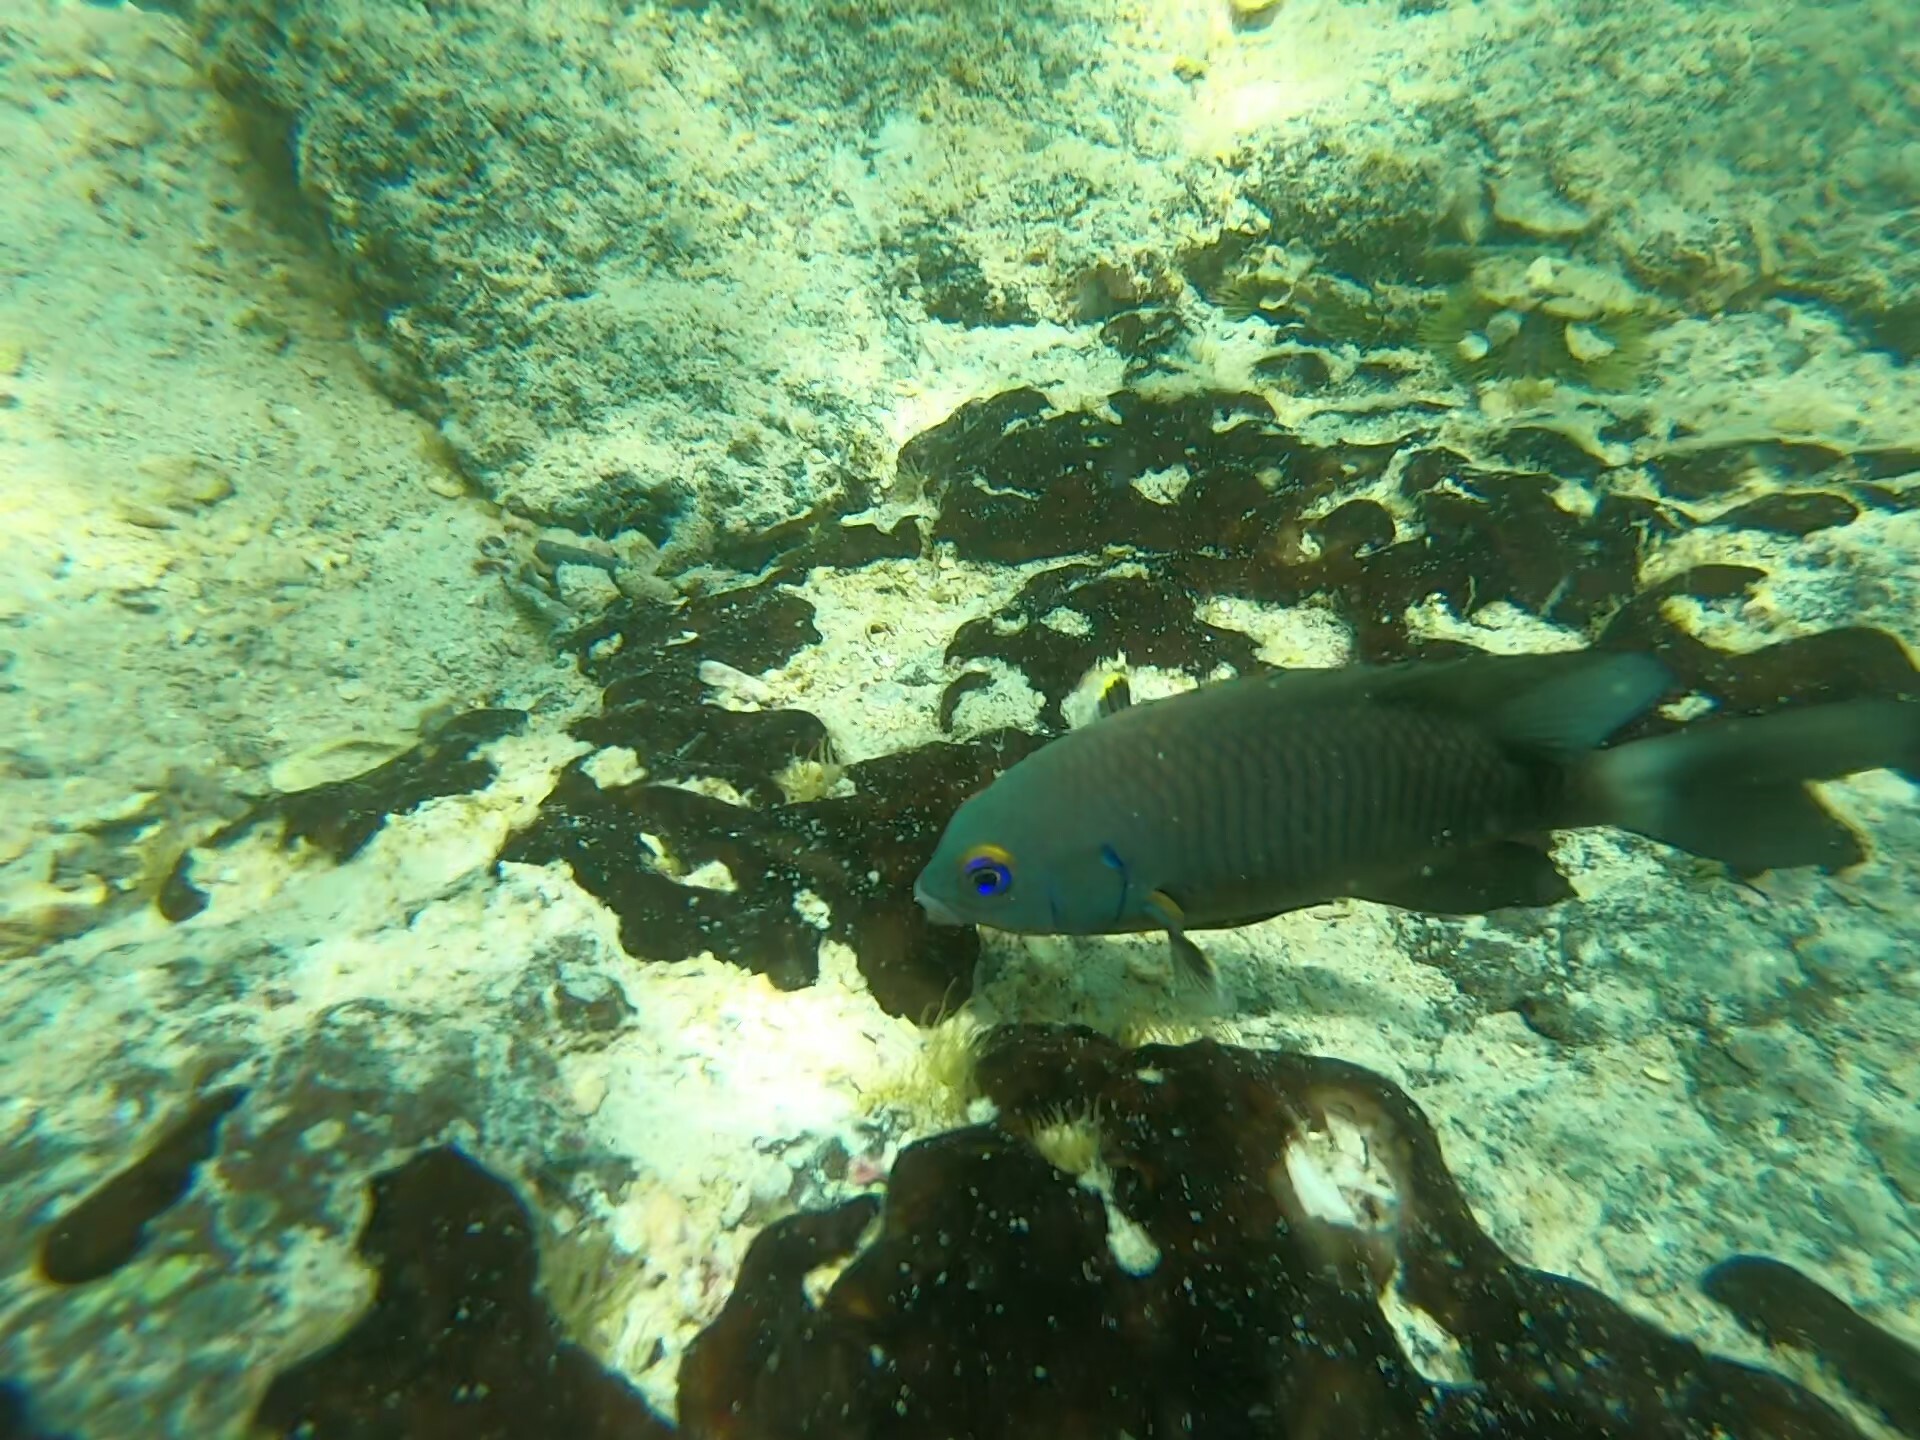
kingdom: Animalia
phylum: Chordata
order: Perciformes
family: Pomacentridae
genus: Stegastes
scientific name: Stegastes beebei
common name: Galapagos ringtail damselfish
